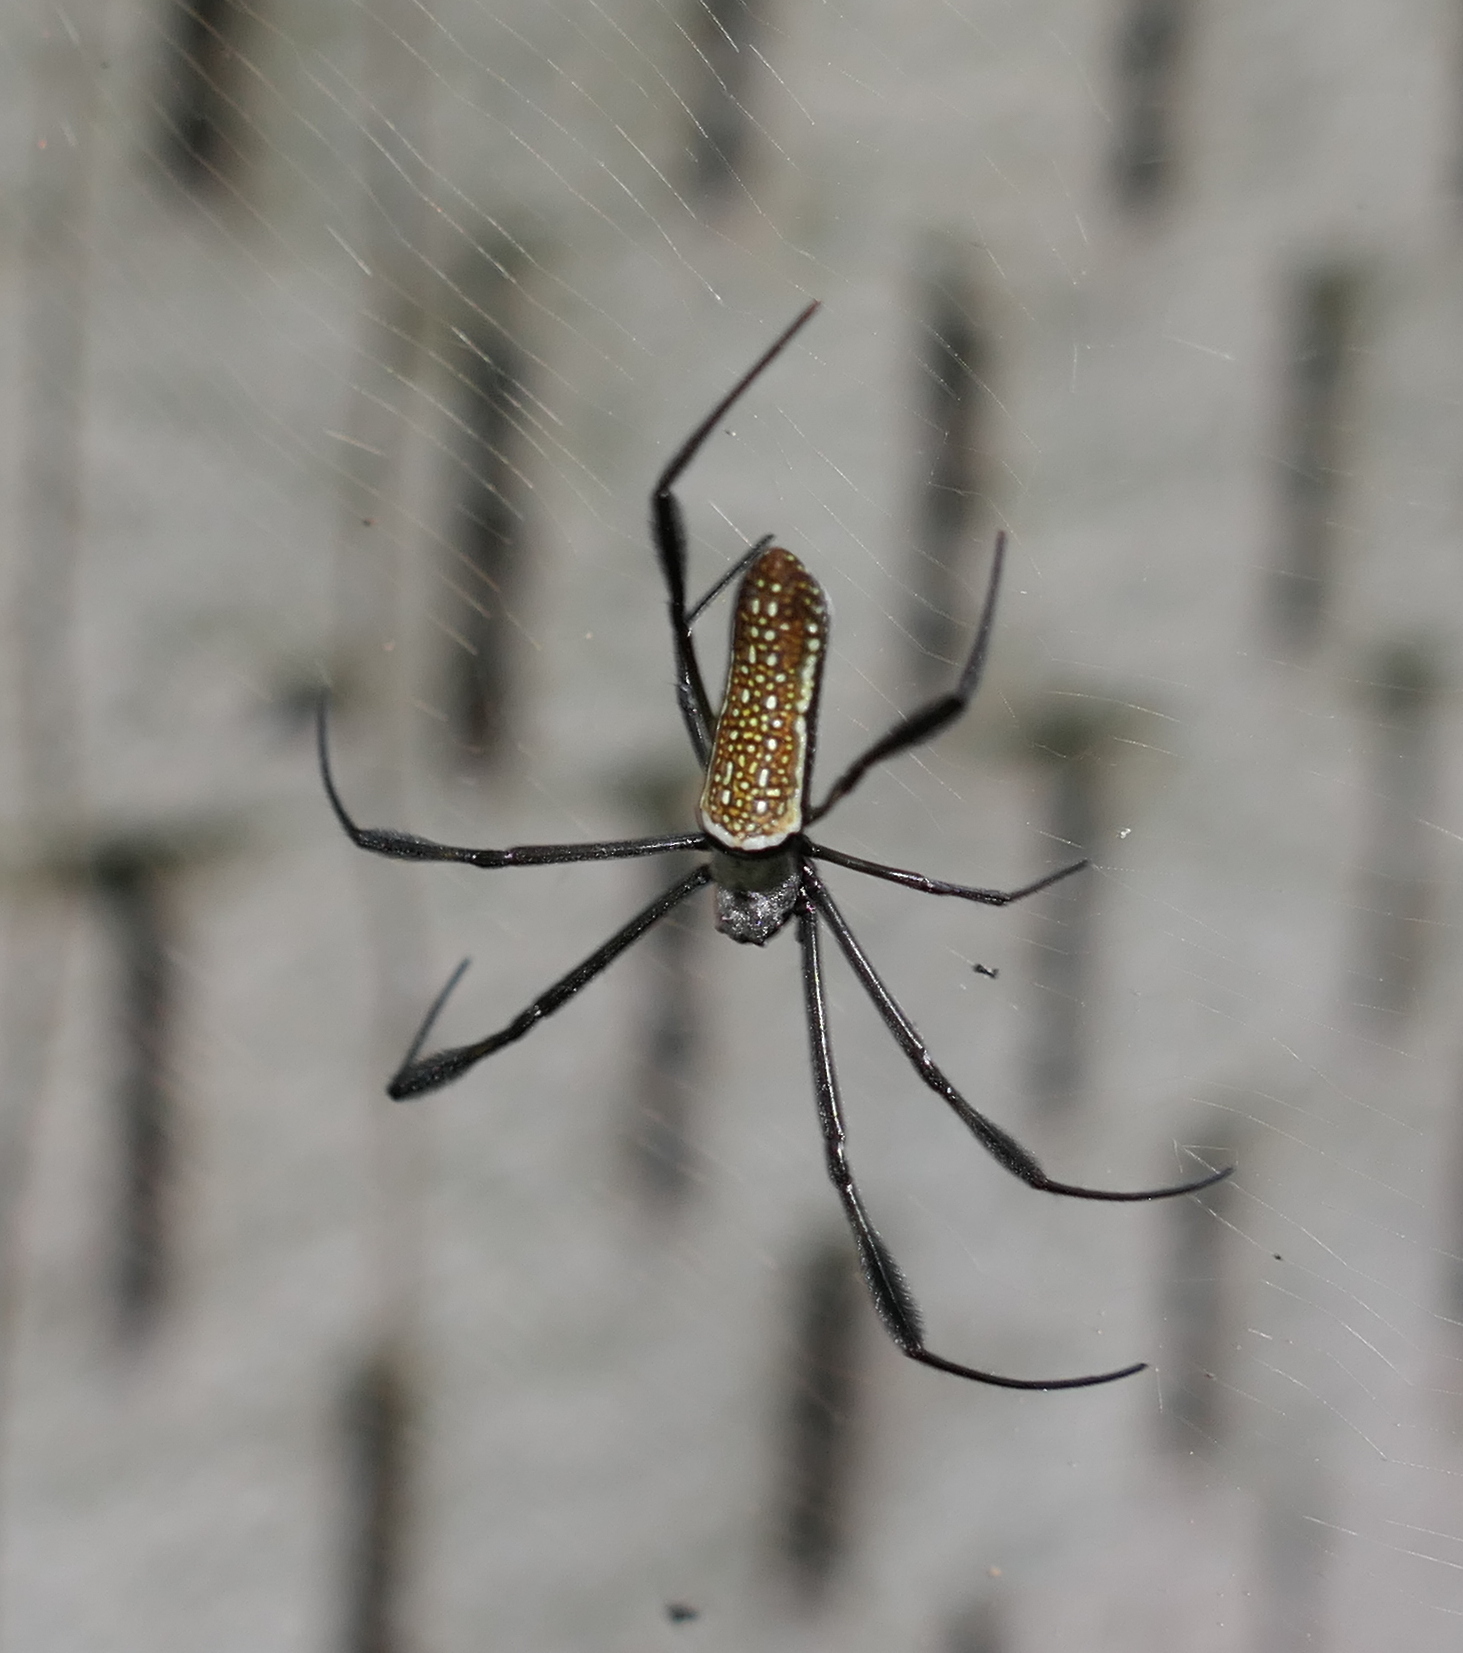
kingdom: Animalia
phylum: Arthropoda
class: Arachnida
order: Araneae
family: Araneidae
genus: Trichonephila
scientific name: Trichonephila clavipes
